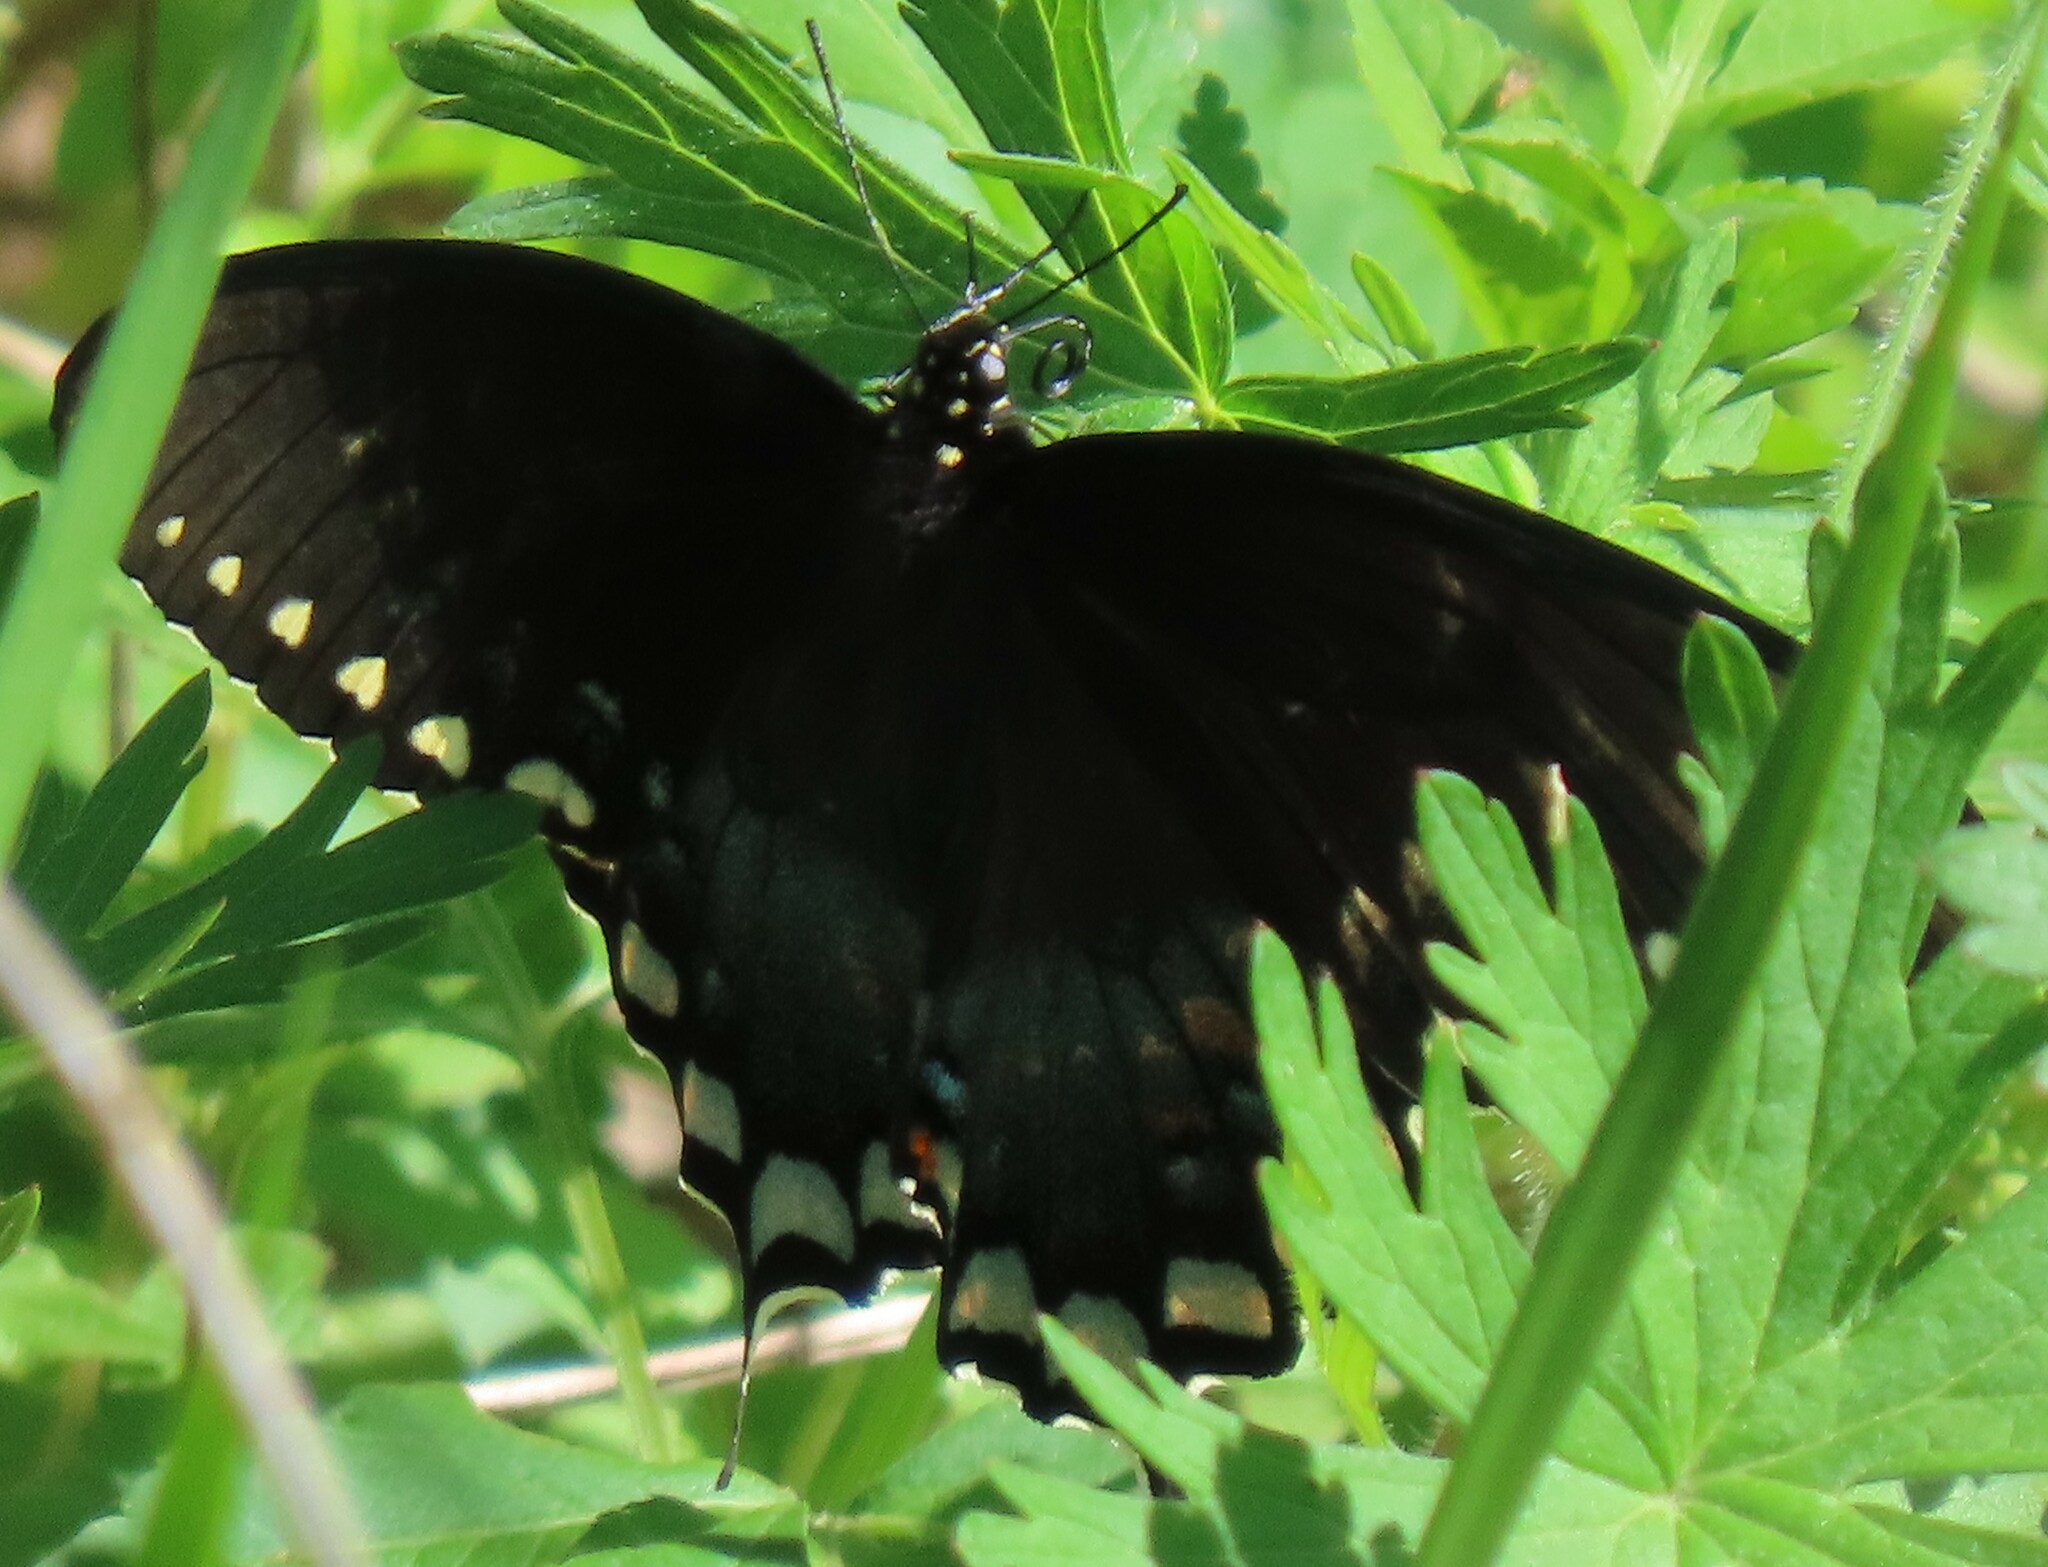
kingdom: Animalia
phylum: Arthropoda
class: Insecta
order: Lepidoptera
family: Papilionidae
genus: Papilio
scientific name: Papilio troilus
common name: Spicebush swallowtail
